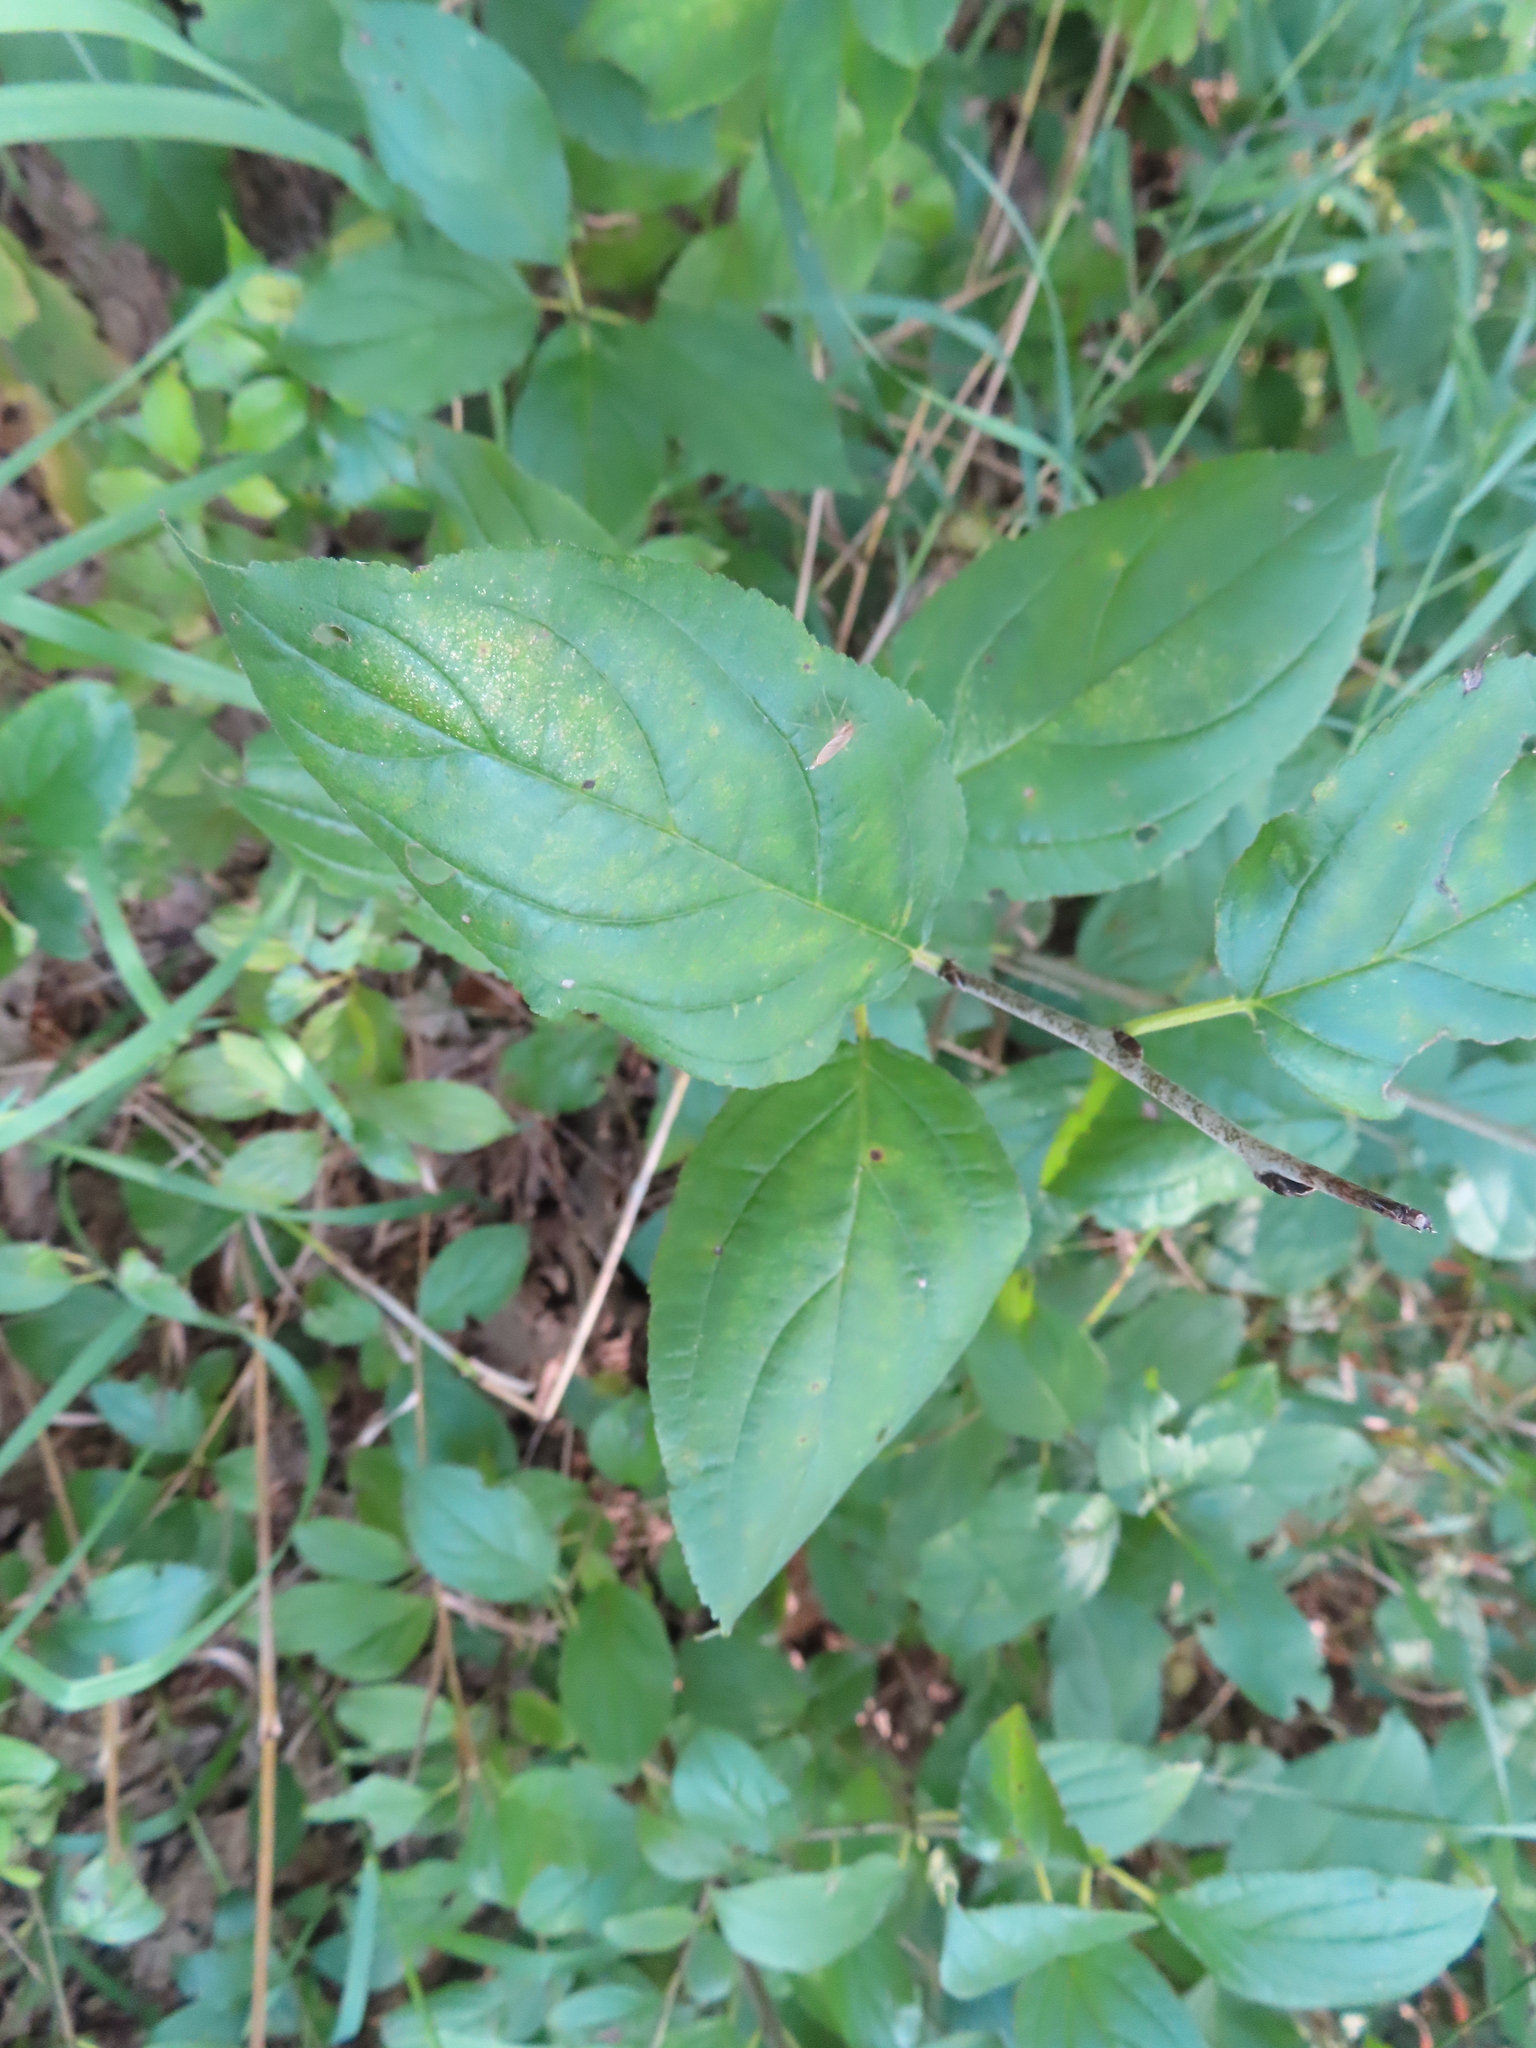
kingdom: Plantae
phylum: Tracheophyta
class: Magnoliopsida
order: Rosales
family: Rhamnaceae
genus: Rhamnus
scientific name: Rhamnus cathartica
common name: Common buckthorn
